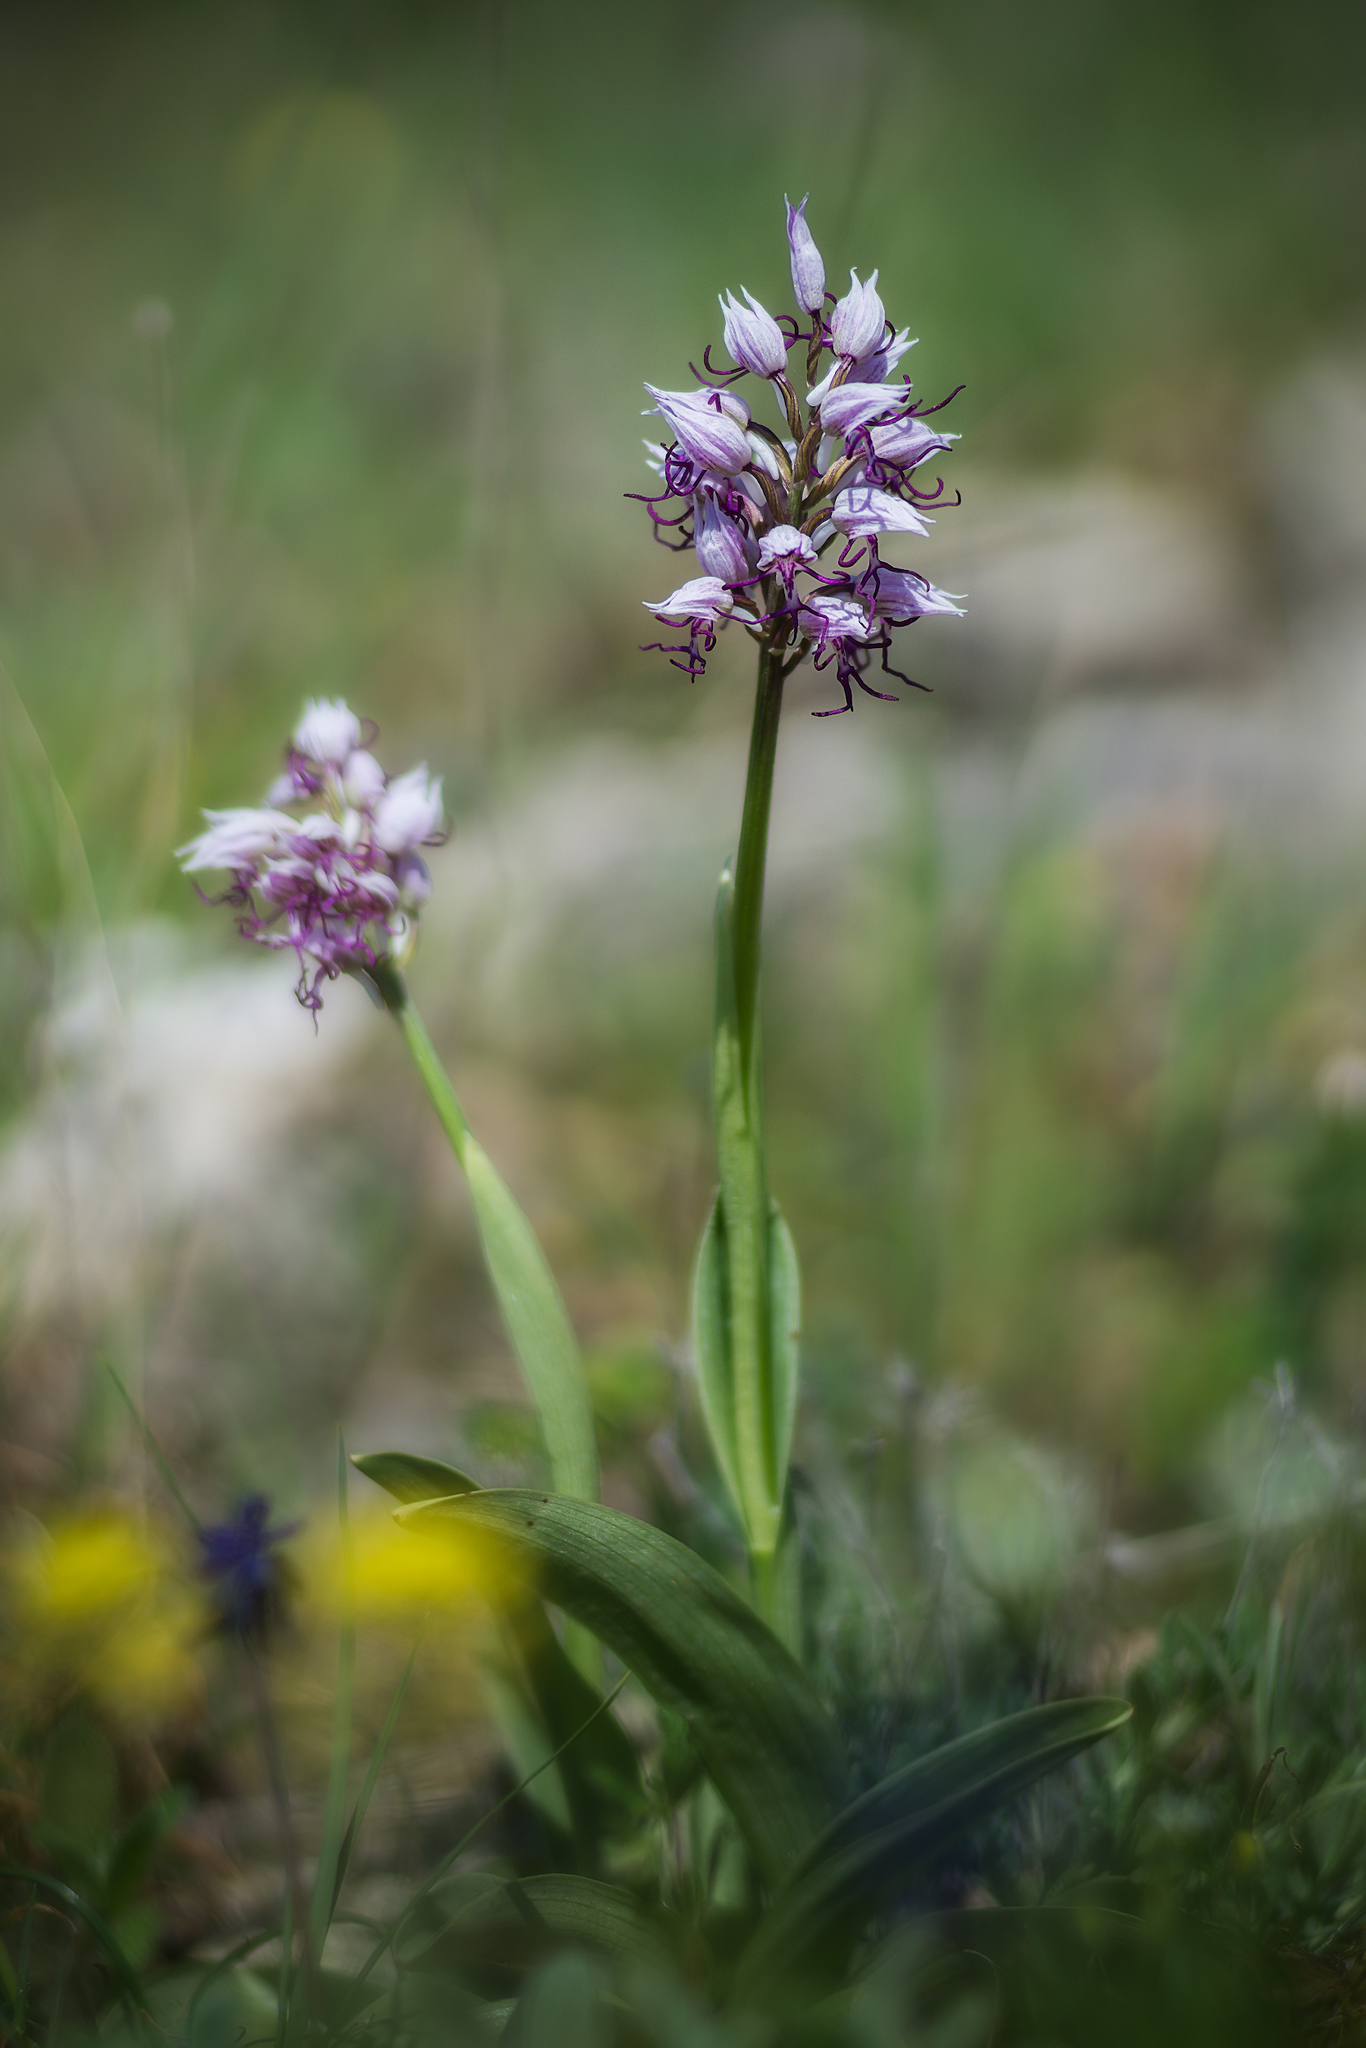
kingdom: Plantae
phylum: Tracheophyta
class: Liliopsida
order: Asparagales
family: Orchidaceae
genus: Orchis
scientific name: Orchis simia
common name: Monkey orchid
